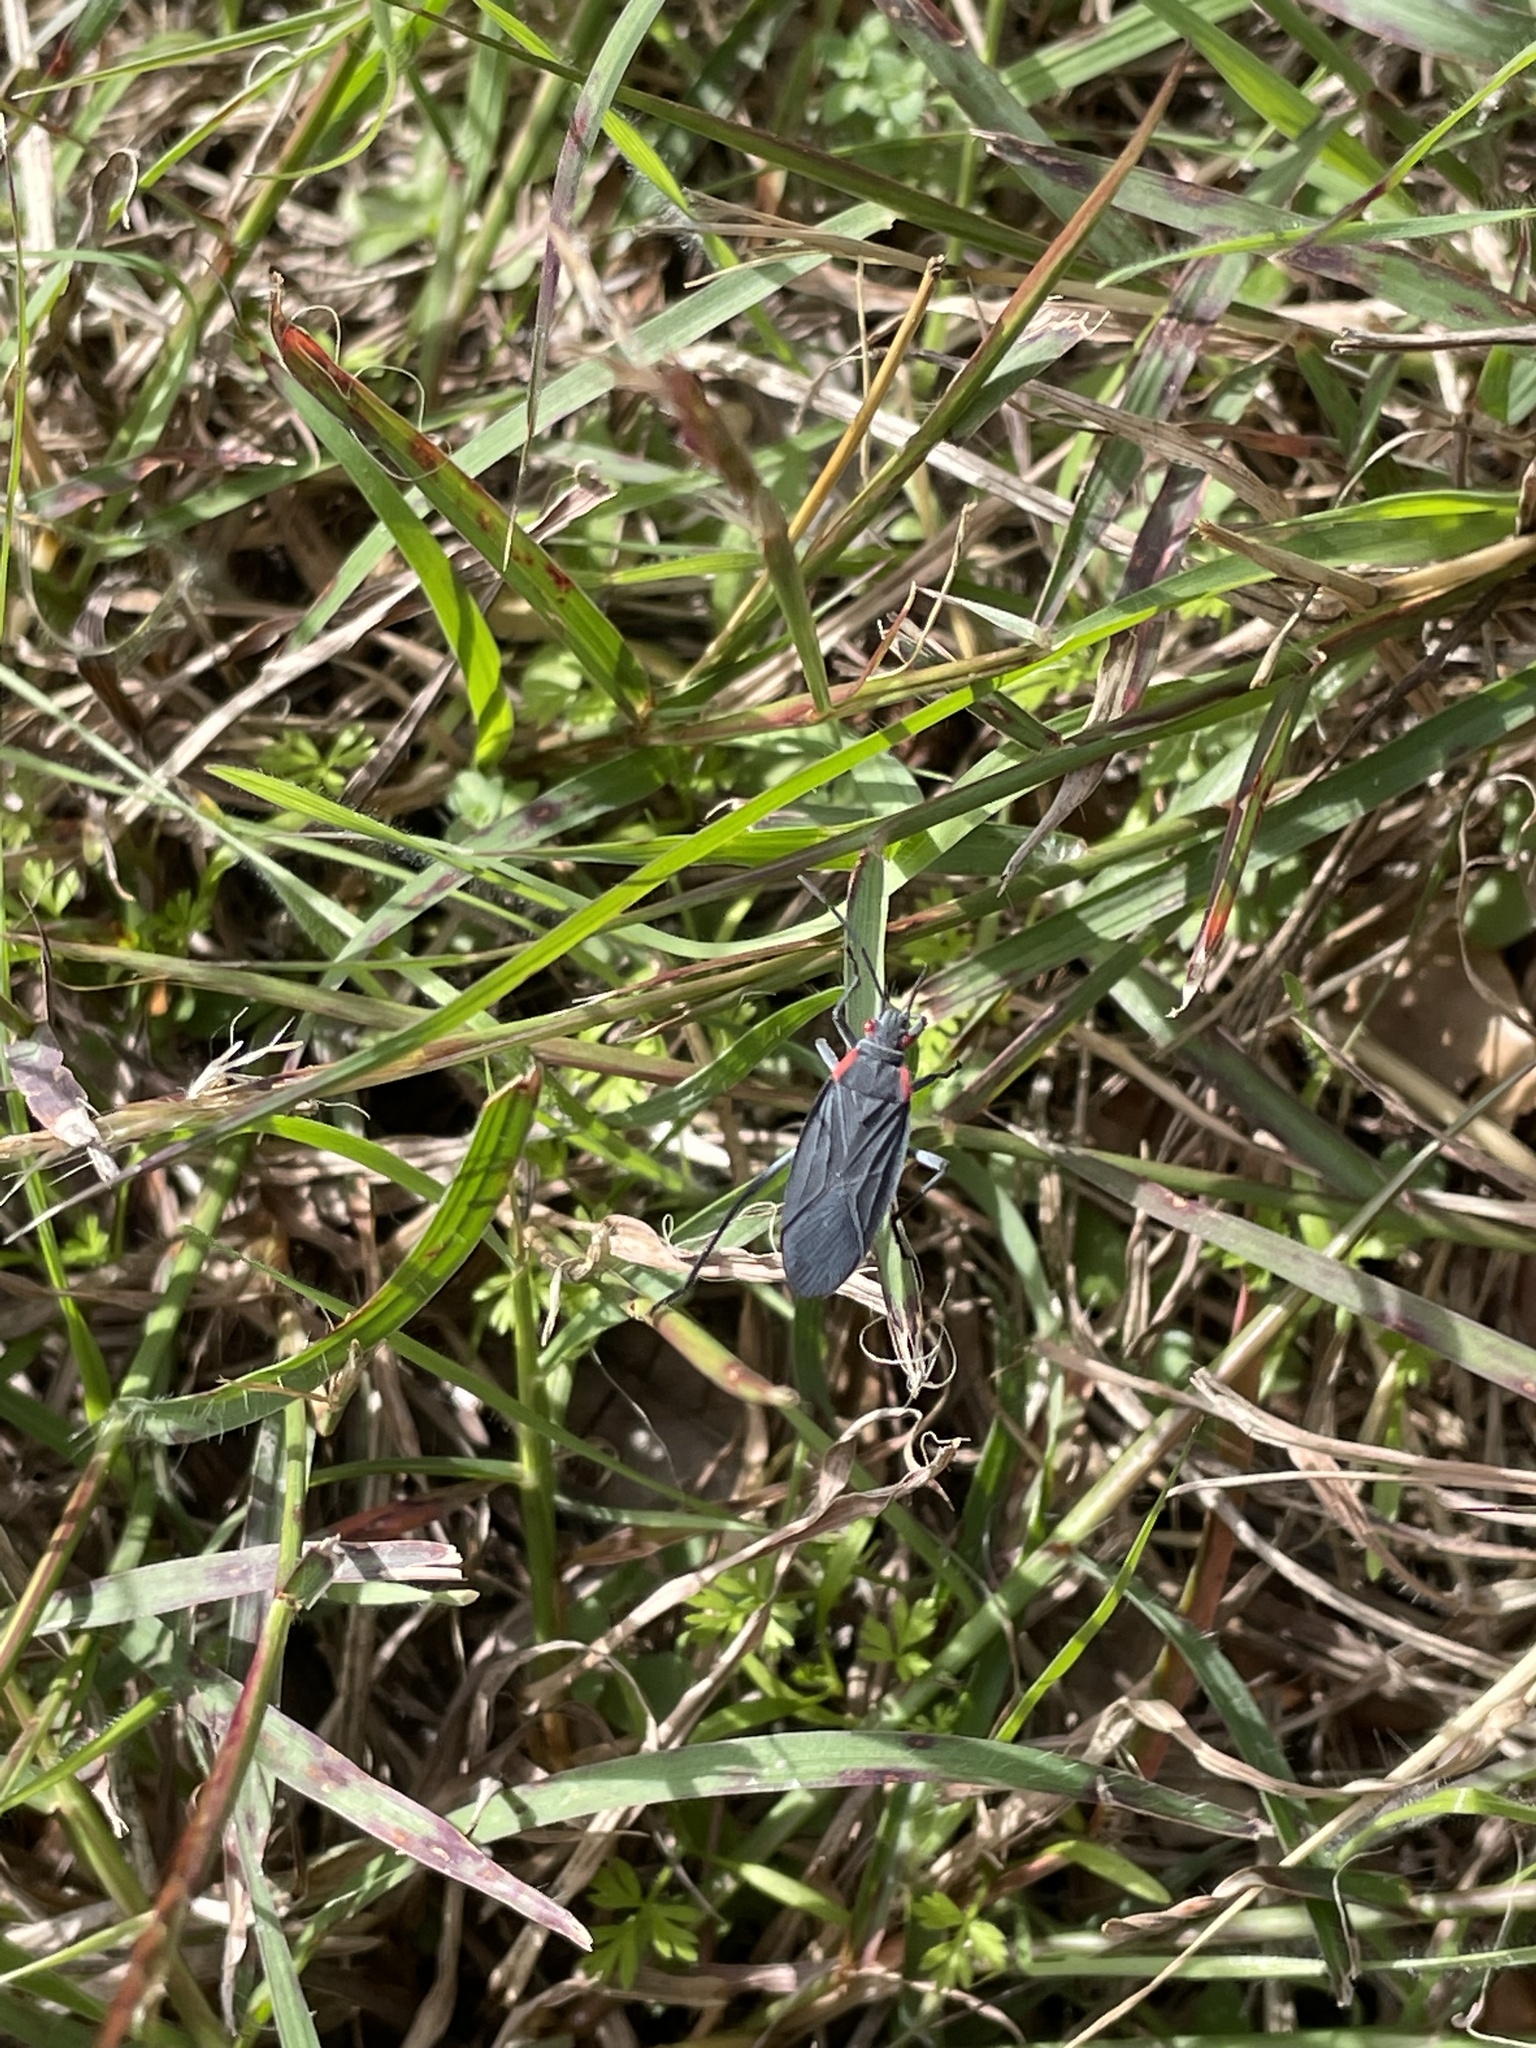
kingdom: Animalia
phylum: Arthropoda
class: Insecta
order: Hemiptera
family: Rhopalidae
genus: Jadera
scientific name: Jadera haematoloma
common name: Red-shouldered bug
